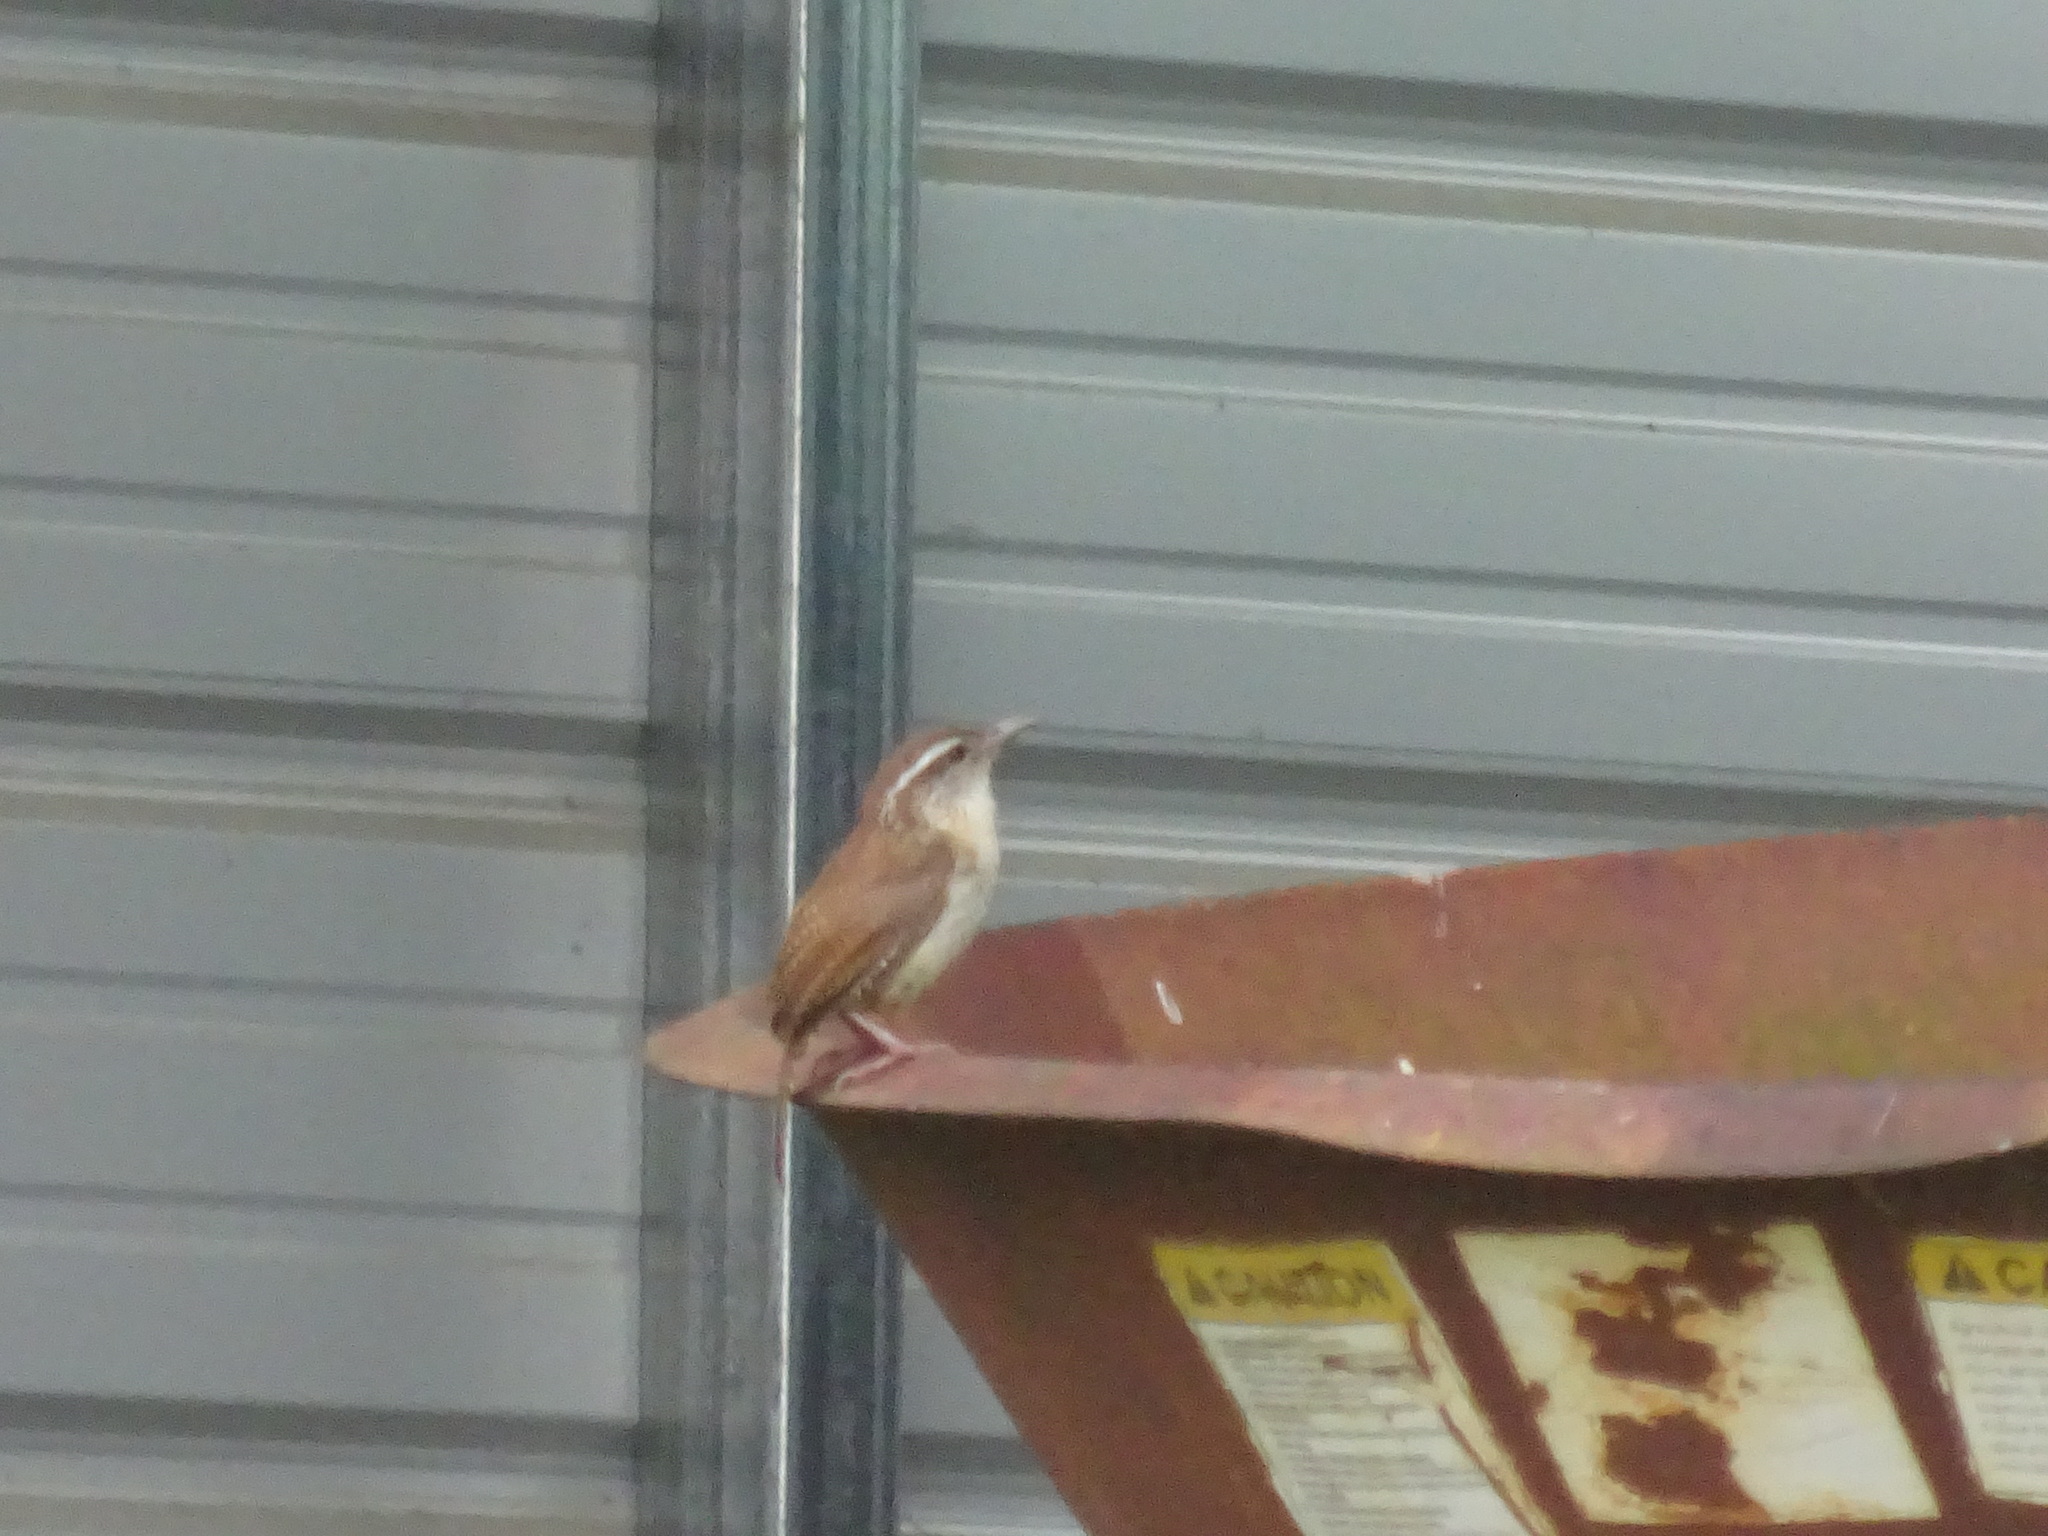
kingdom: Animalia
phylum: Chordata
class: Aves
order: Passeriformes
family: Troglodytidae
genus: Thryothorus
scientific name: Thryothorus ludovicianus
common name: Carolina wren
